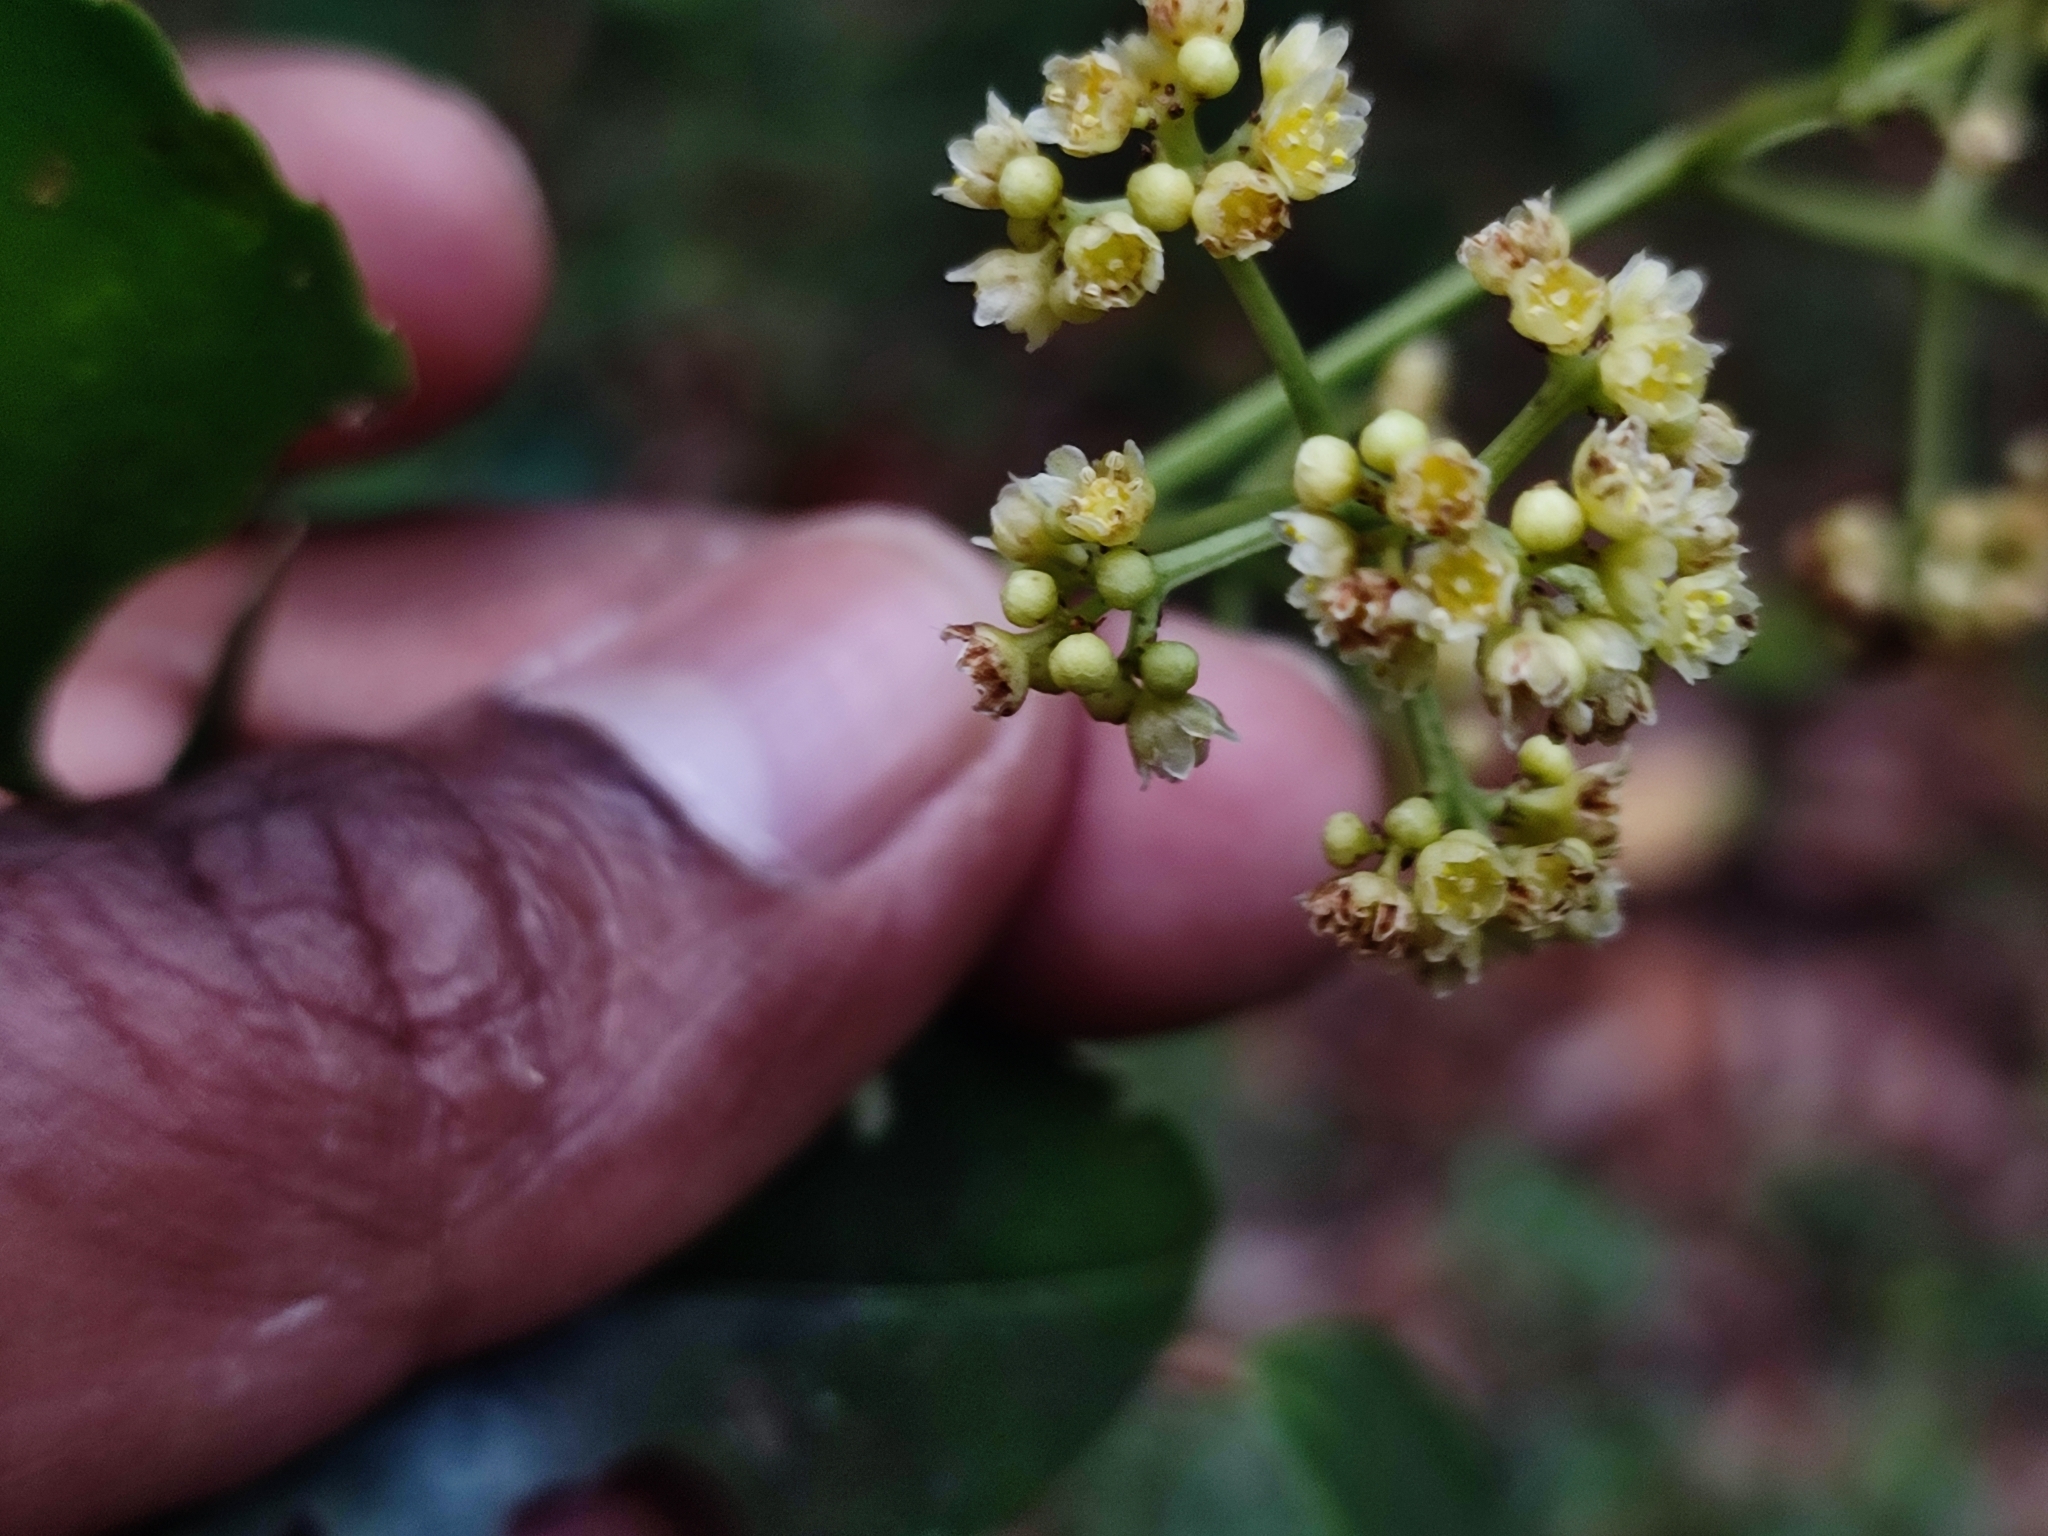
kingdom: Plantae
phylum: Tracheophyta
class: Magnoliopsida
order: Crossosomatales
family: Staphyleaceae
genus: Turpinia
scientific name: Turpinia cochinchinensis
